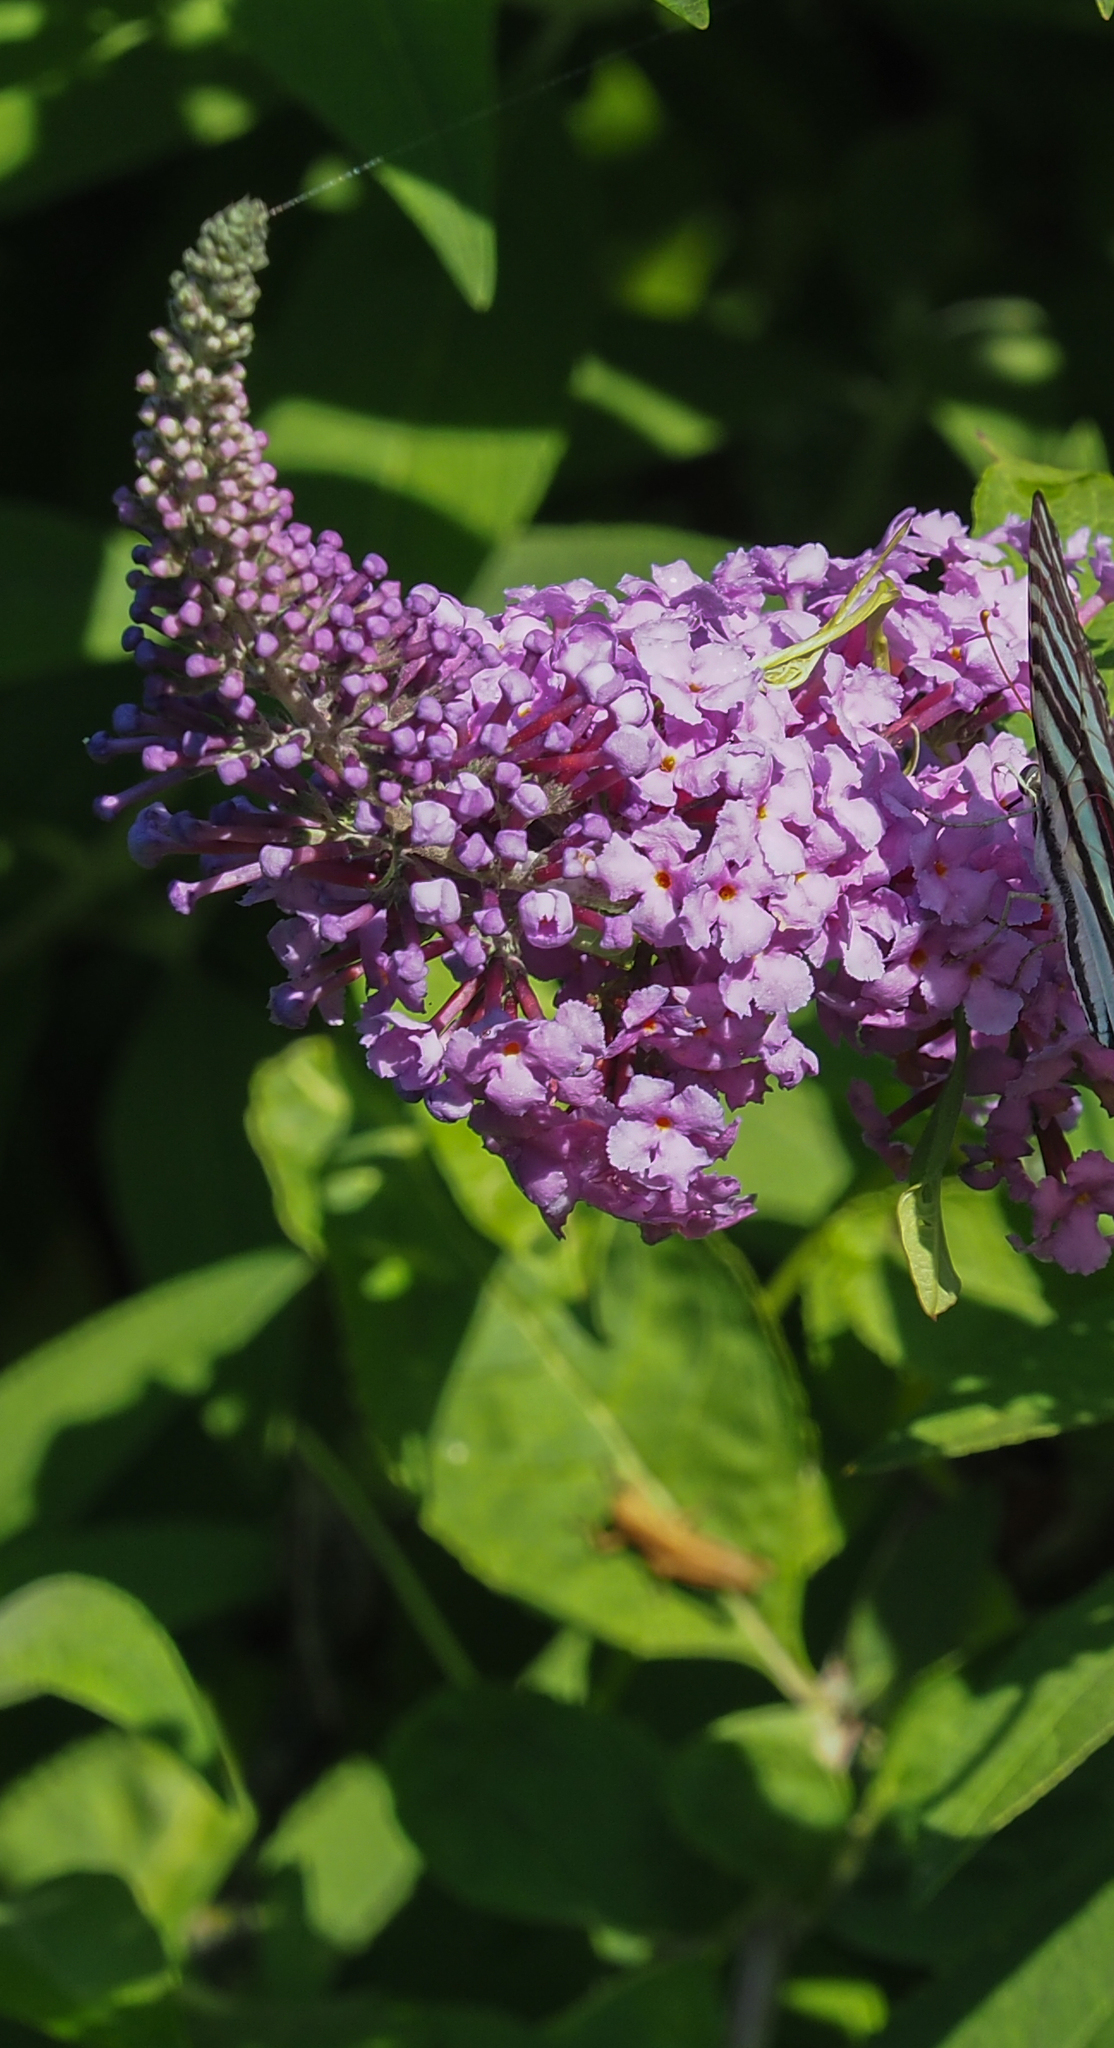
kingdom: Plantae
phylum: Tracheophyta
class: Magnoliopsida
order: Lamiales
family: Scrophulariaceae
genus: Buddleja
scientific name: Buddleja davidii
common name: Butterfly-bush
